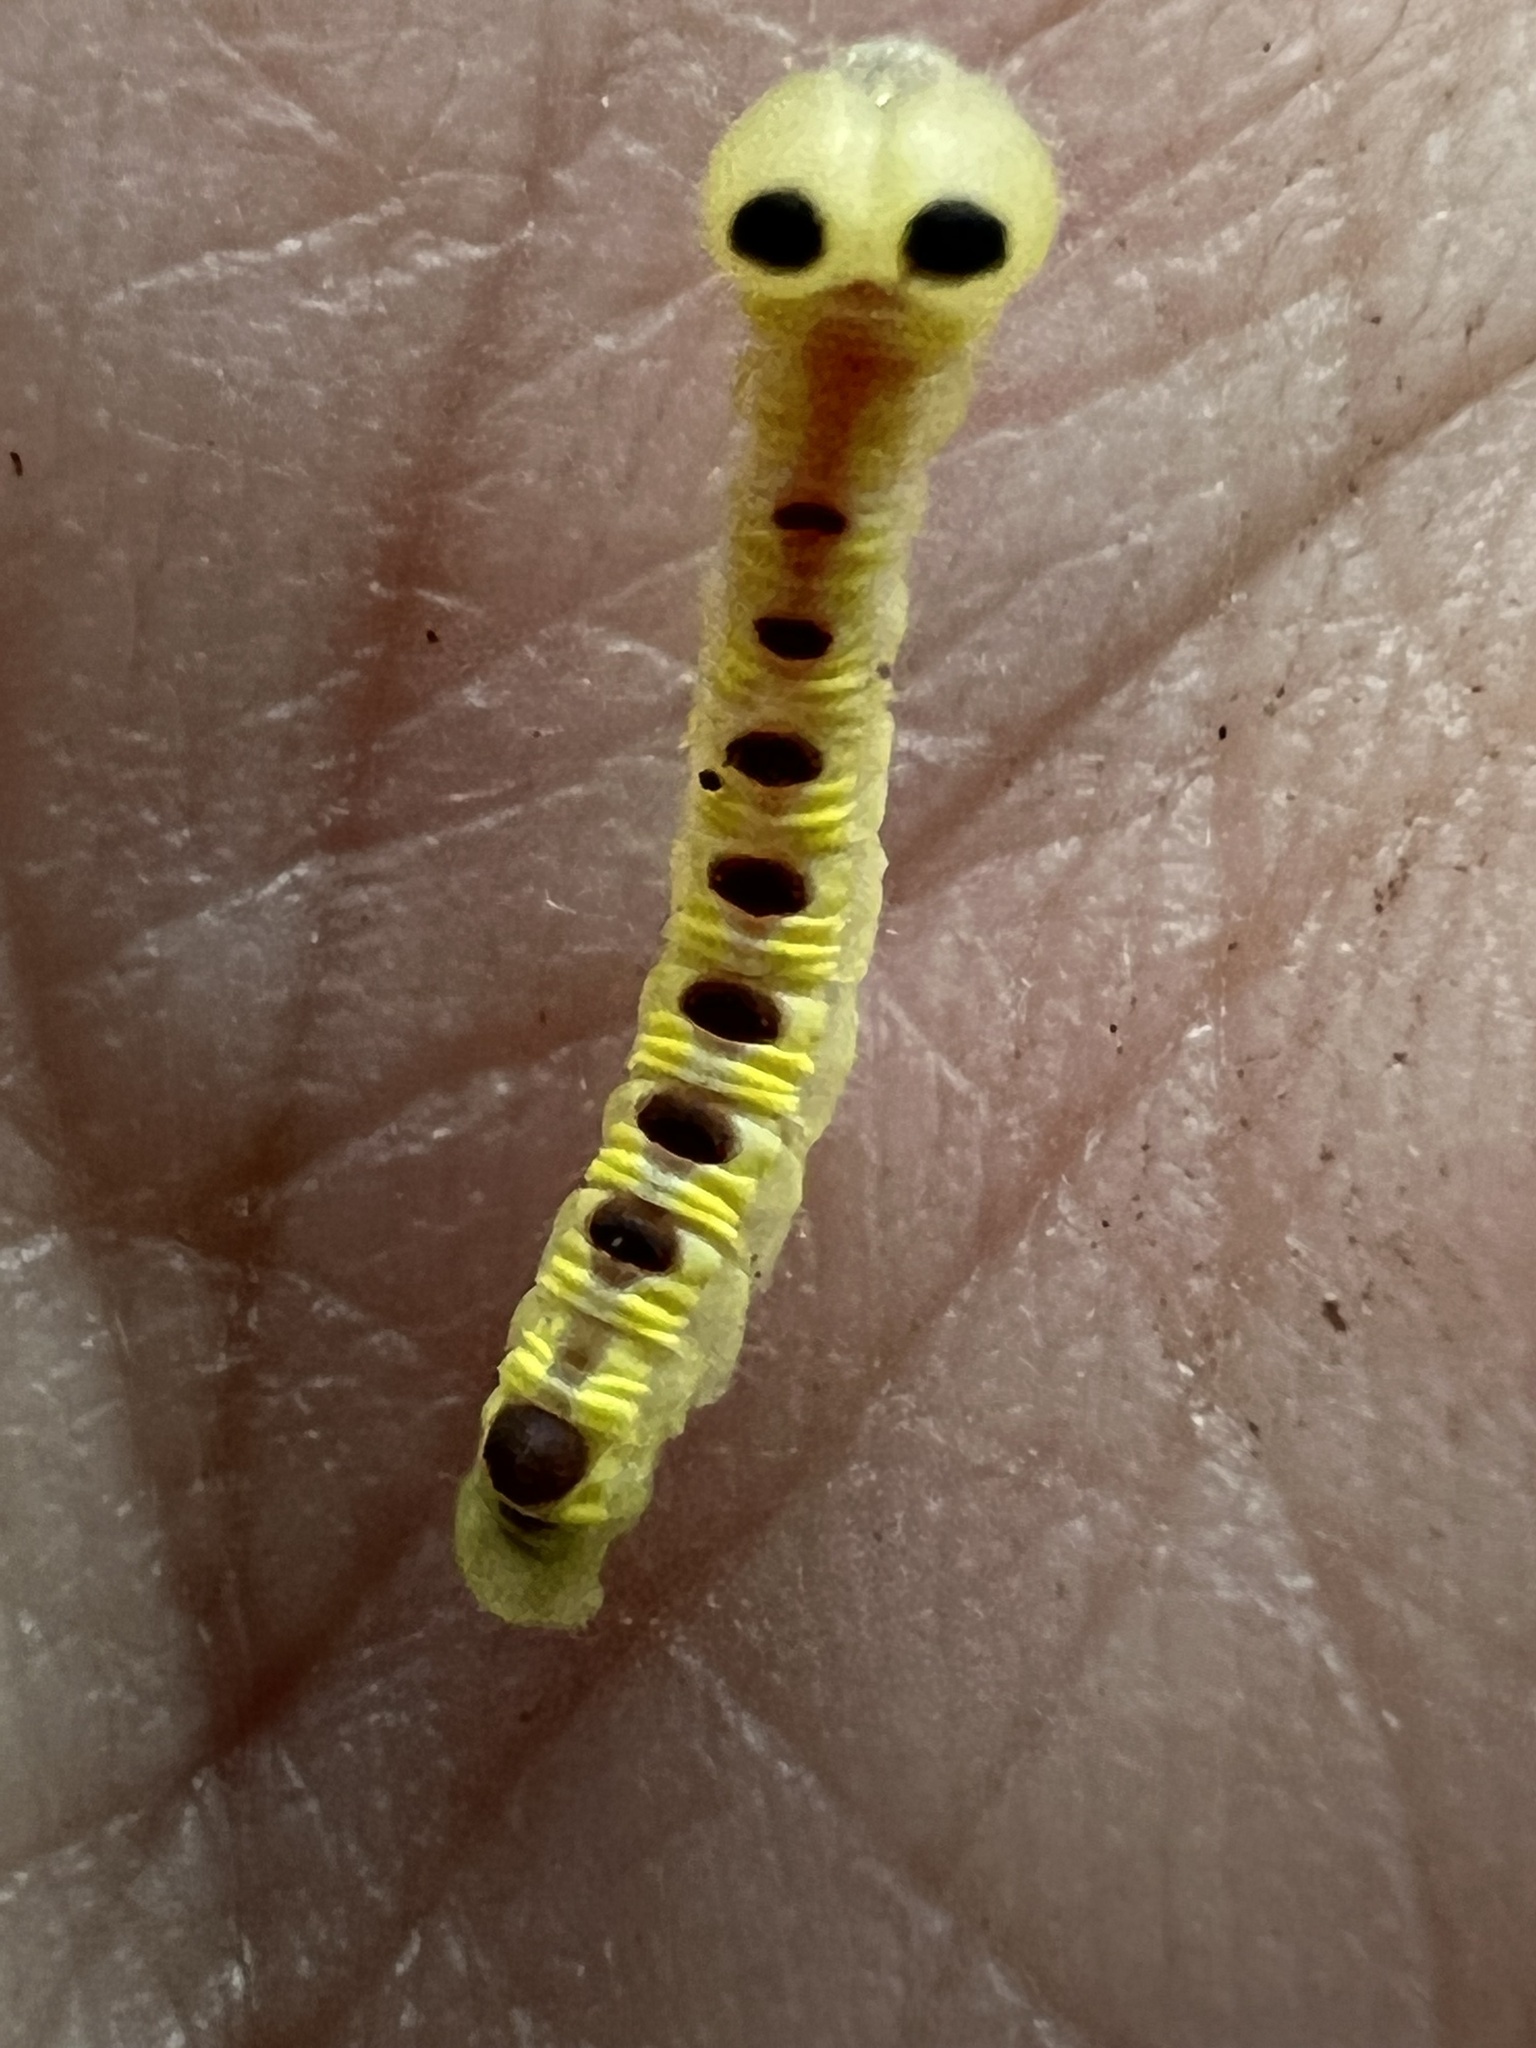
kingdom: Animalia
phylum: Arthropoda
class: Insecta
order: Lepidoptera
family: Notodontidae
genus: Ellida
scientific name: Ellida caniplaga
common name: Linden prominent
